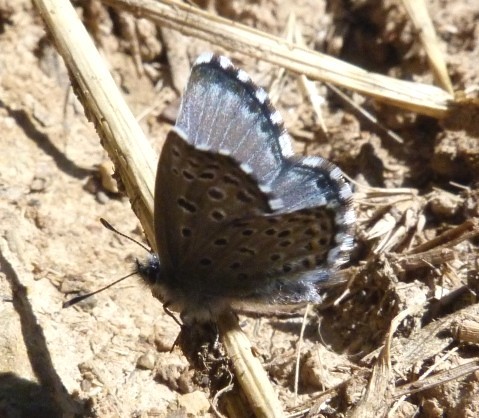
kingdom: Animalia
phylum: Arthropoda
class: Insecta
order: Lepidoptera
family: Lycaenidae
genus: Pseudophilotes
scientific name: Pseudophilotes baton
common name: Baton blue
